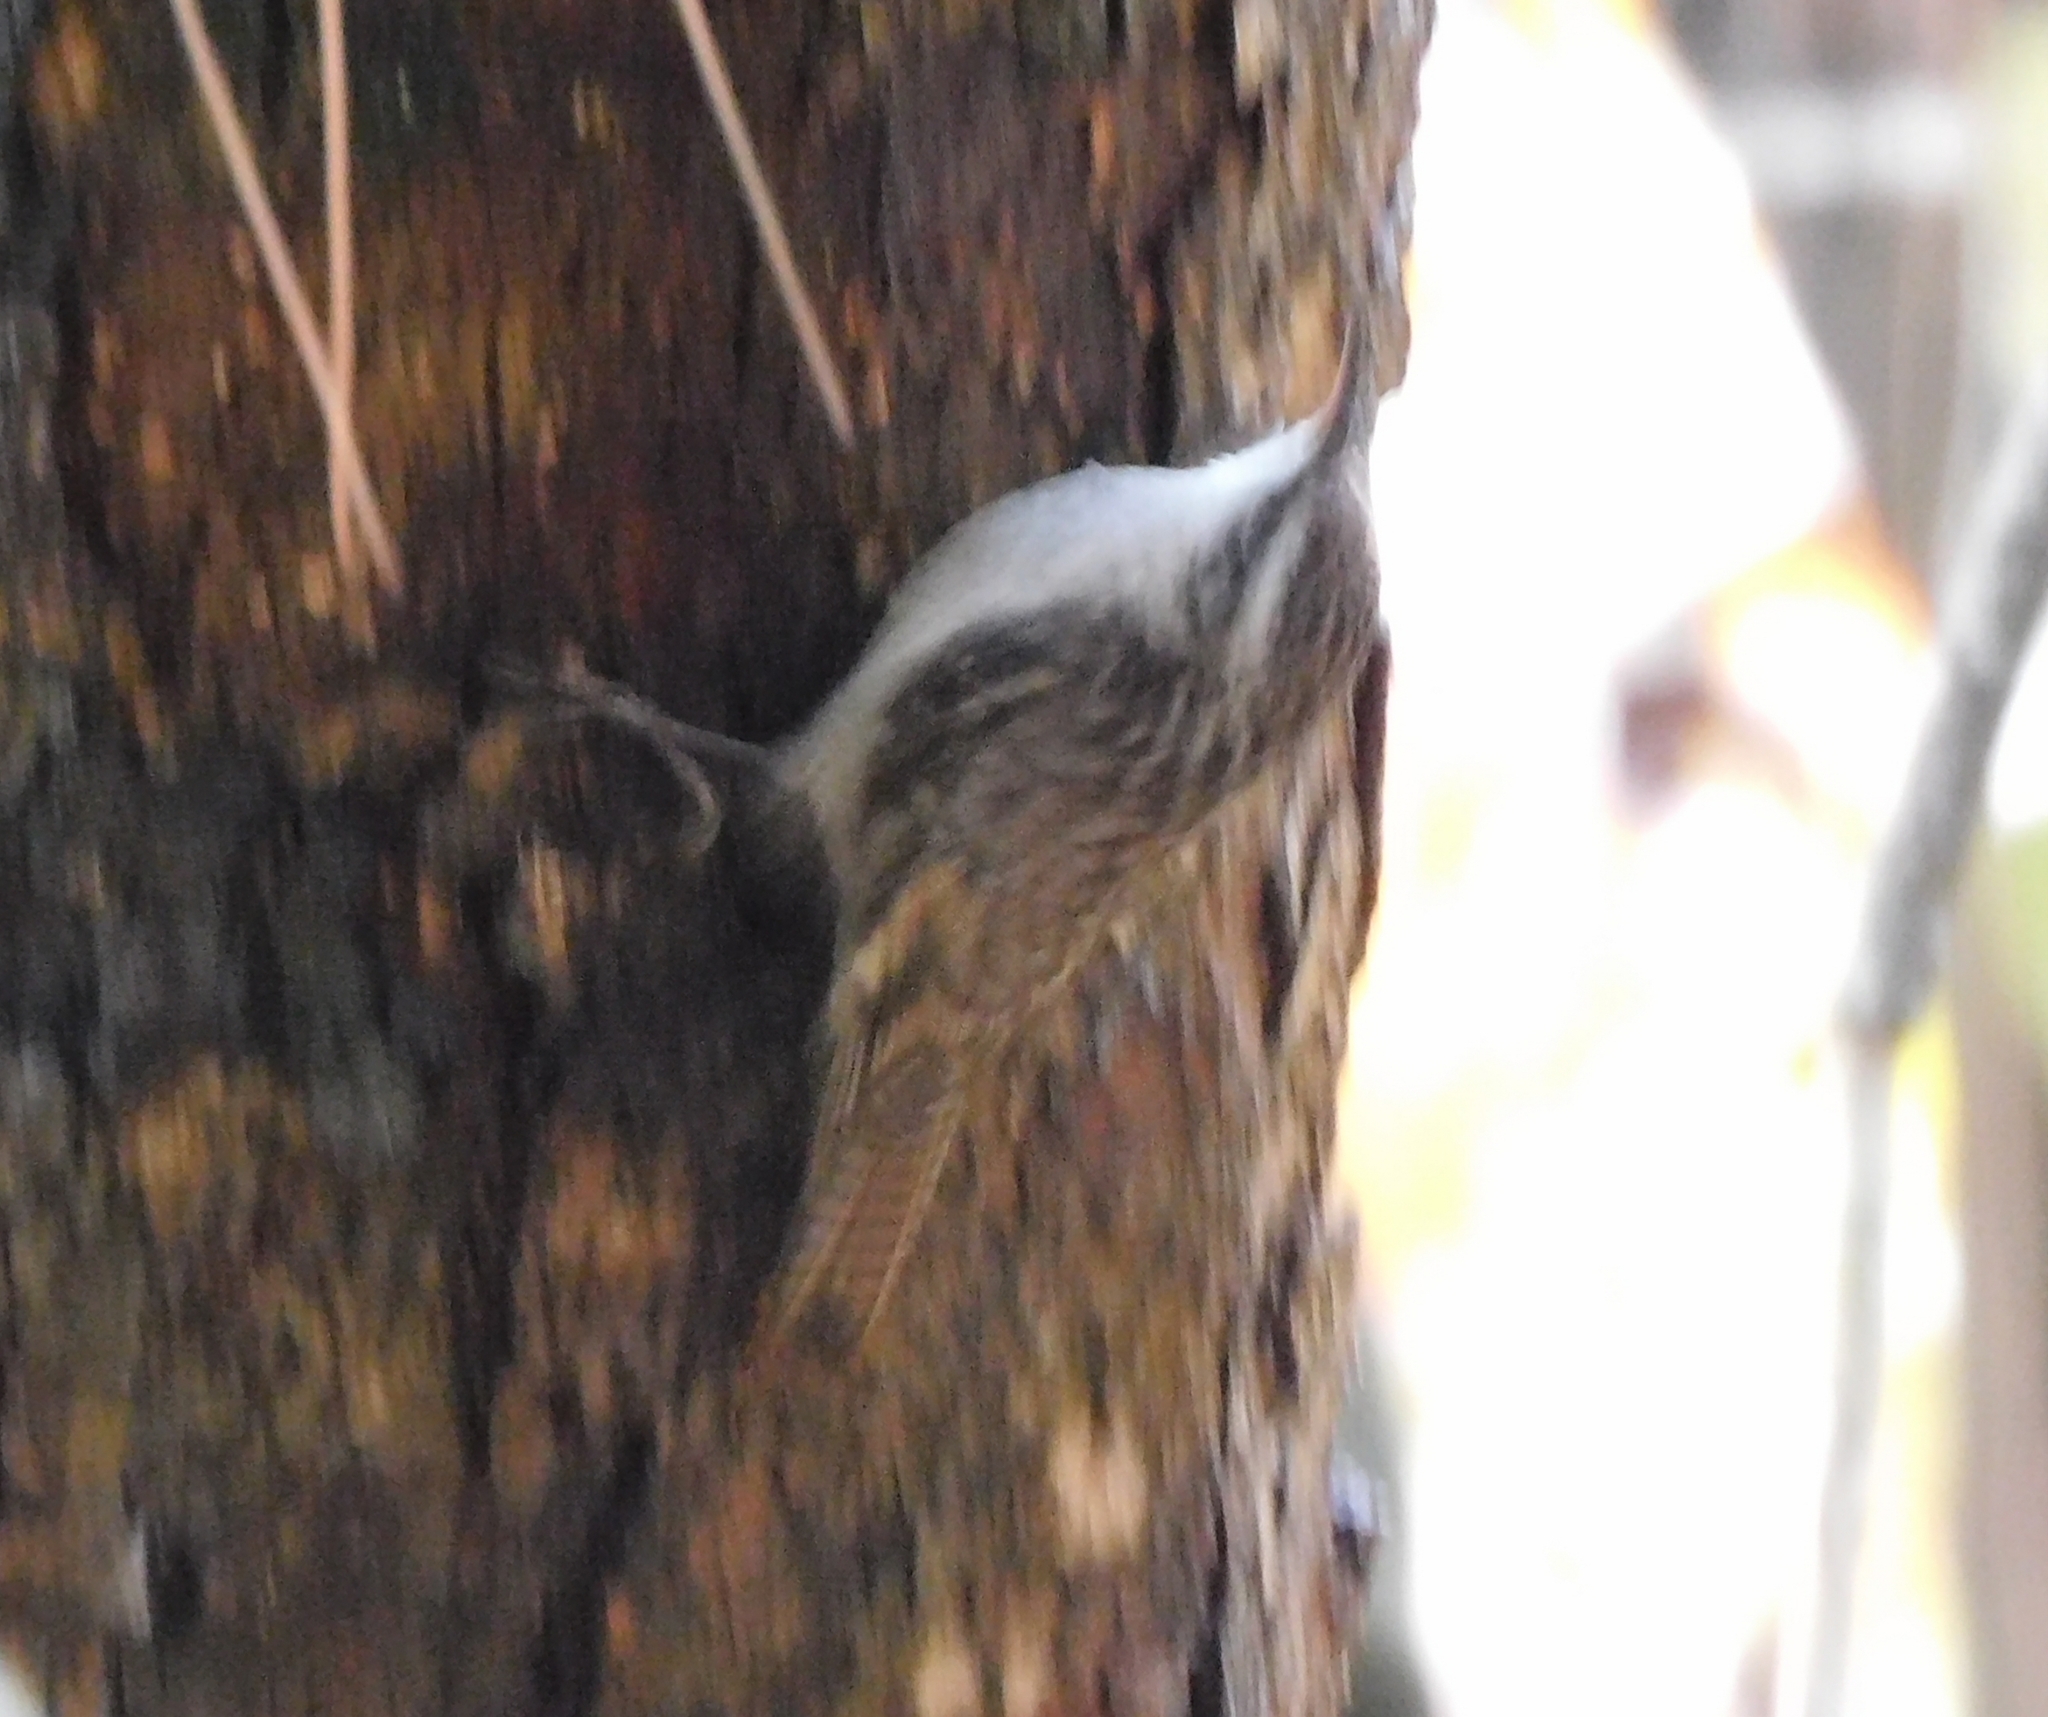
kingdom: Animalia
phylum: Chordata
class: Aves
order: Passeriformes
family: Certhiidae
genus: Certhia
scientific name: Certhia himalayana
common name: Bar-tailed treecreeper
